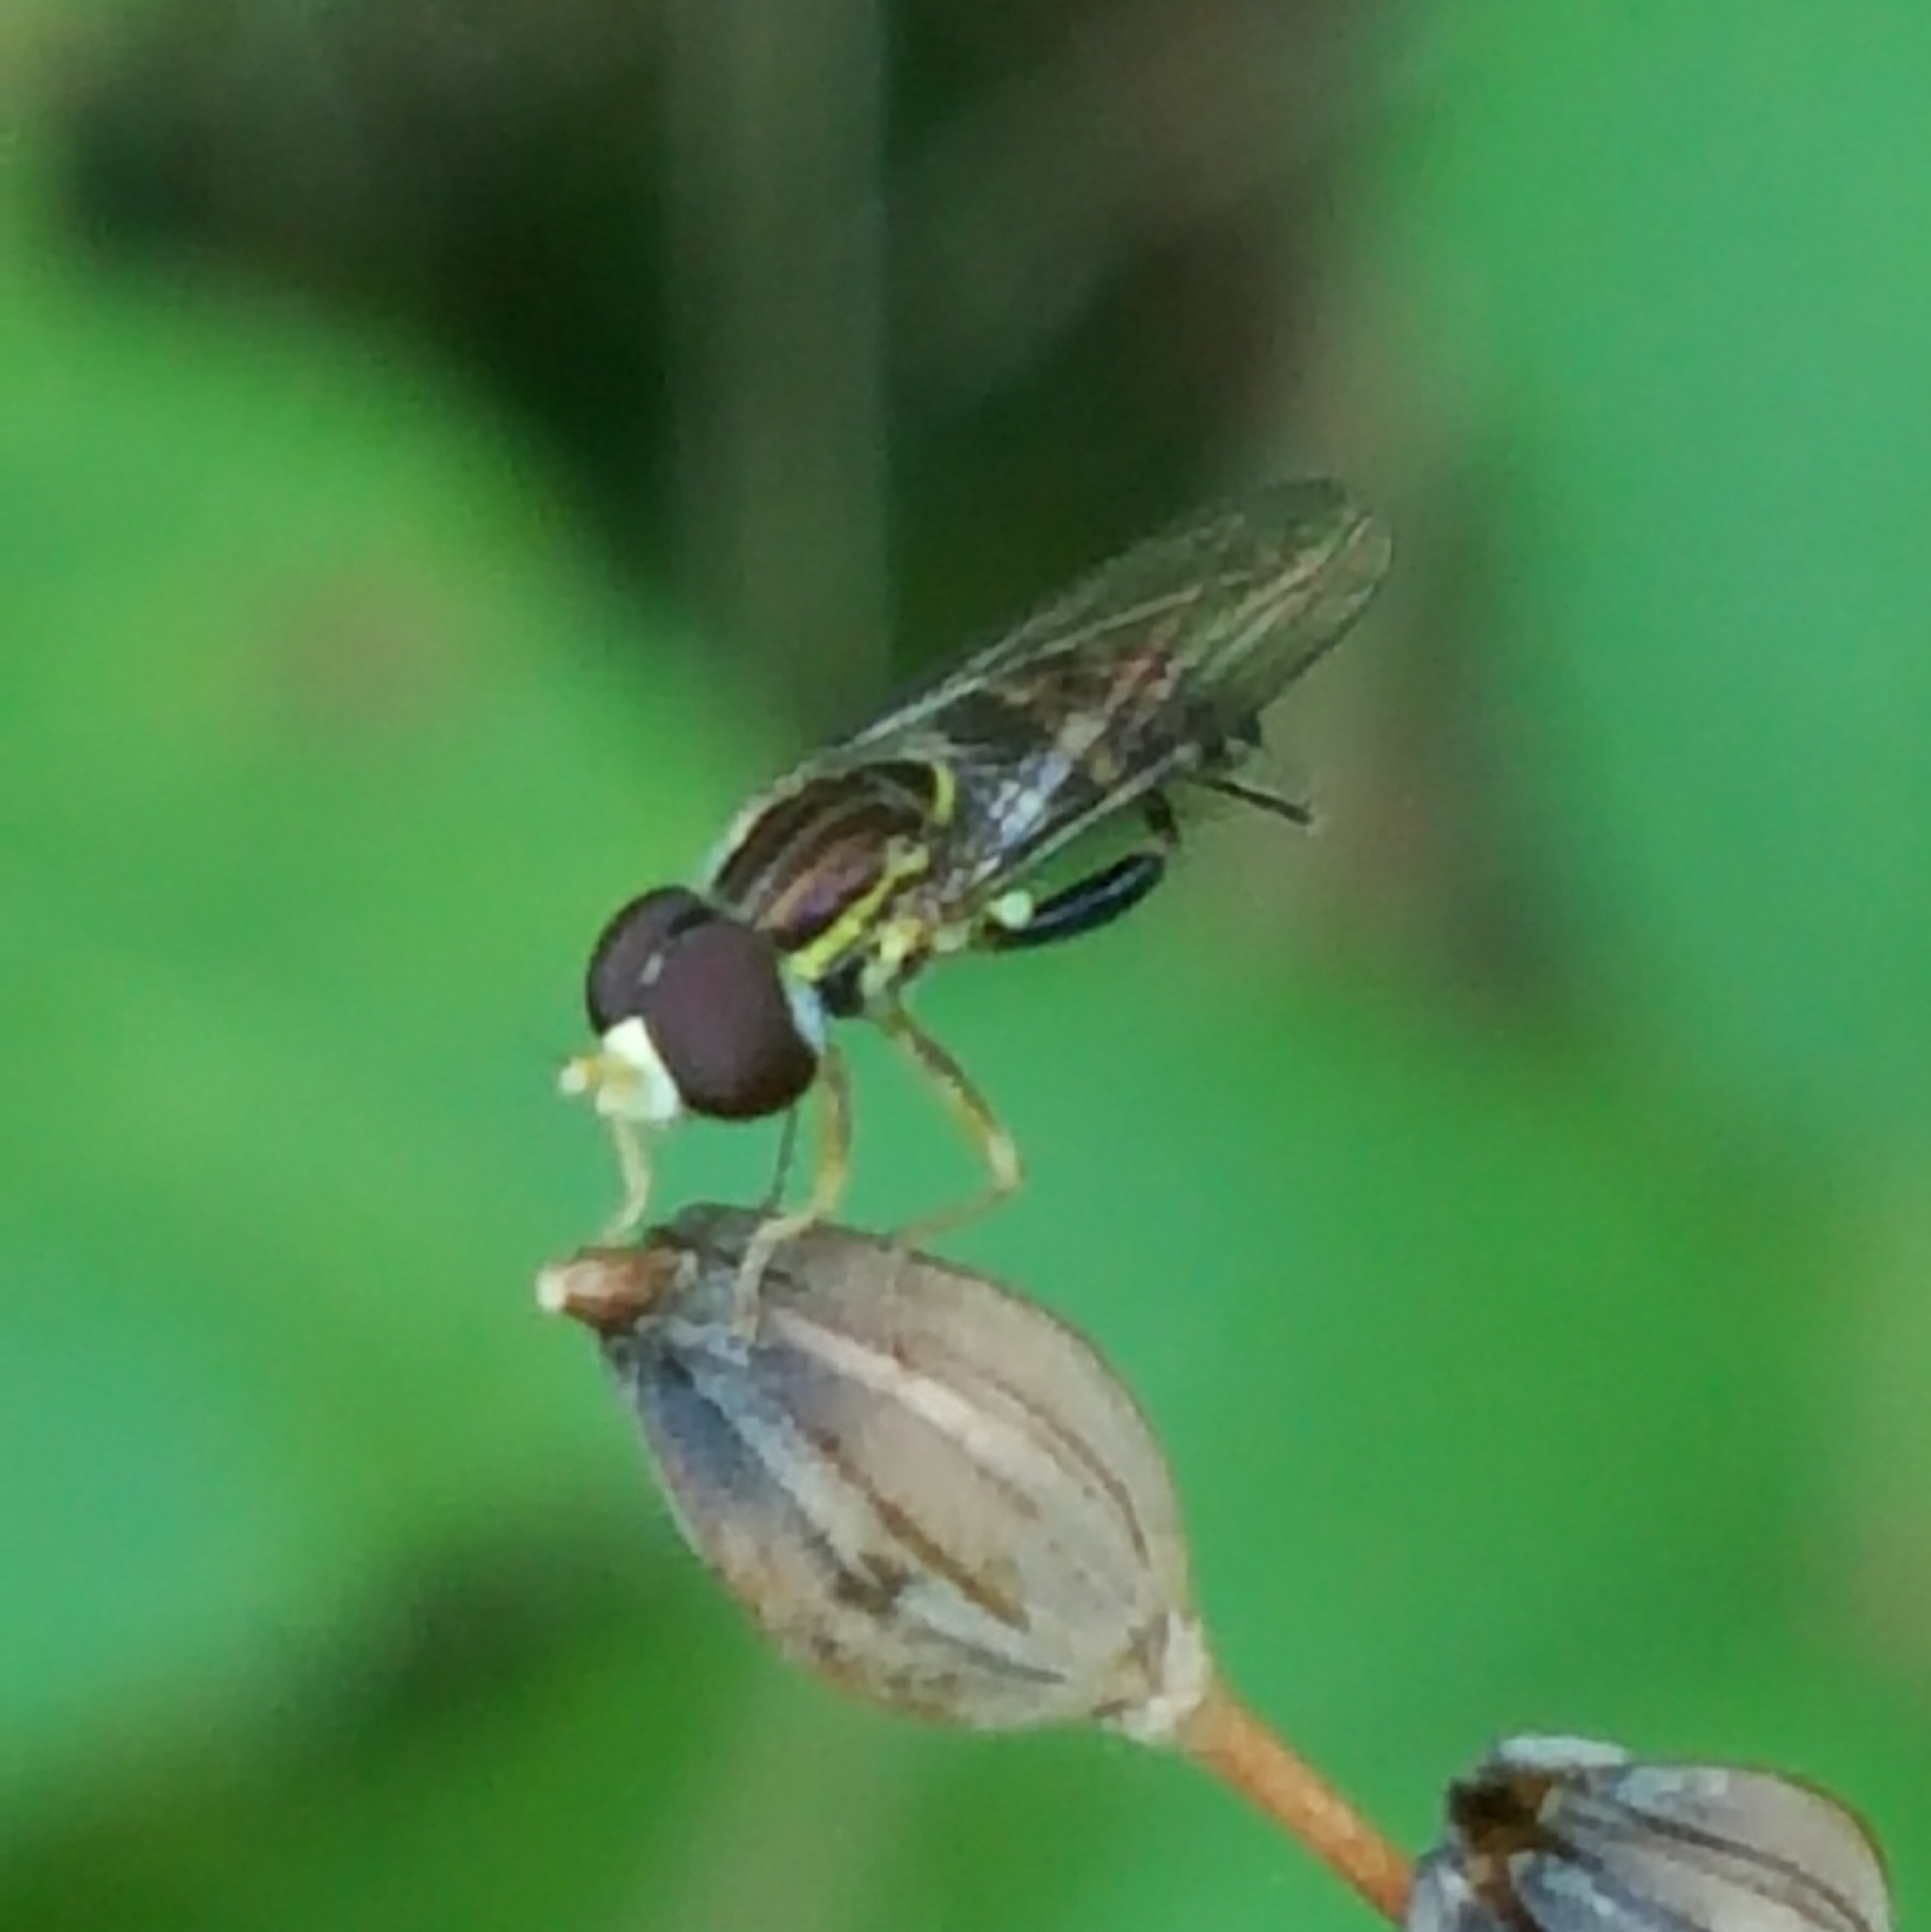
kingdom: Animalia
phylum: Arthropoda
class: Insecta
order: Diptera
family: Syrphidae
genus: Toxomerus
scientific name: Toxomerus occidentalis
